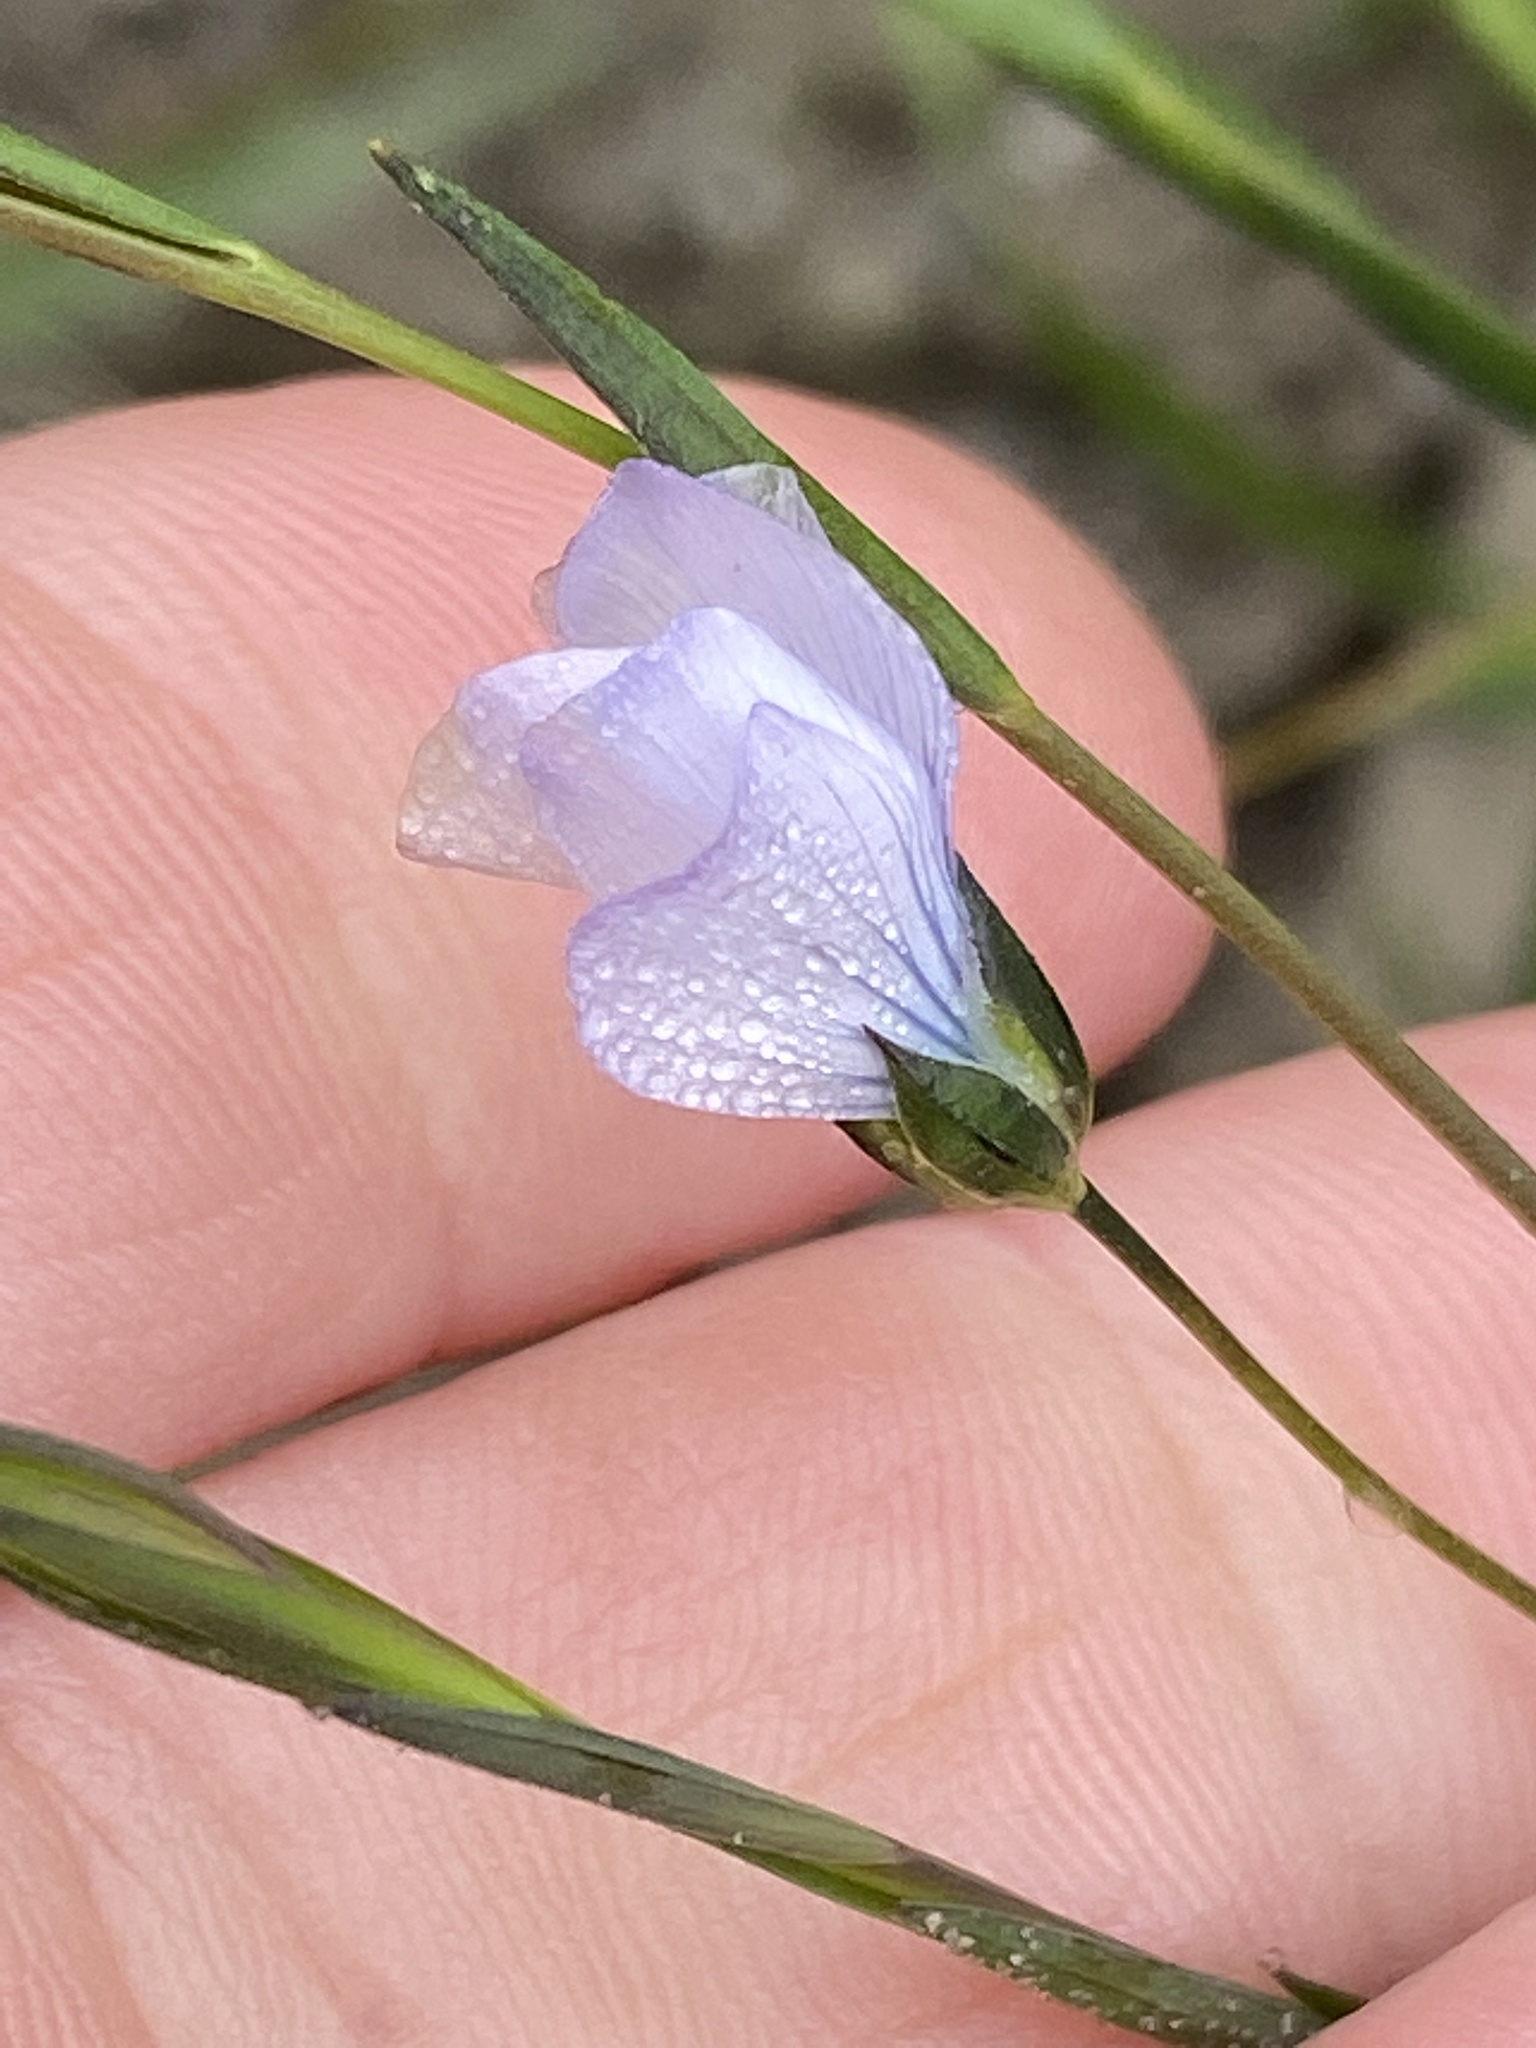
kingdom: Plantae
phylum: Tracheophyta
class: Magnoliopsida
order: Malpighiales
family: Linaceae
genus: Linum
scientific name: Linum bienne
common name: Pale flax
